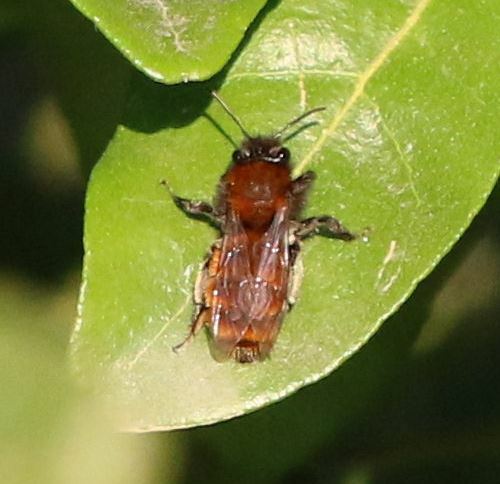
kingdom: Animalia
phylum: Arthropoda
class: Insecta
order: Hymenoptera
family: Andrenidae
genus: Andrena
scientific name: Andrena fulva
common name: Tawny mining bee
